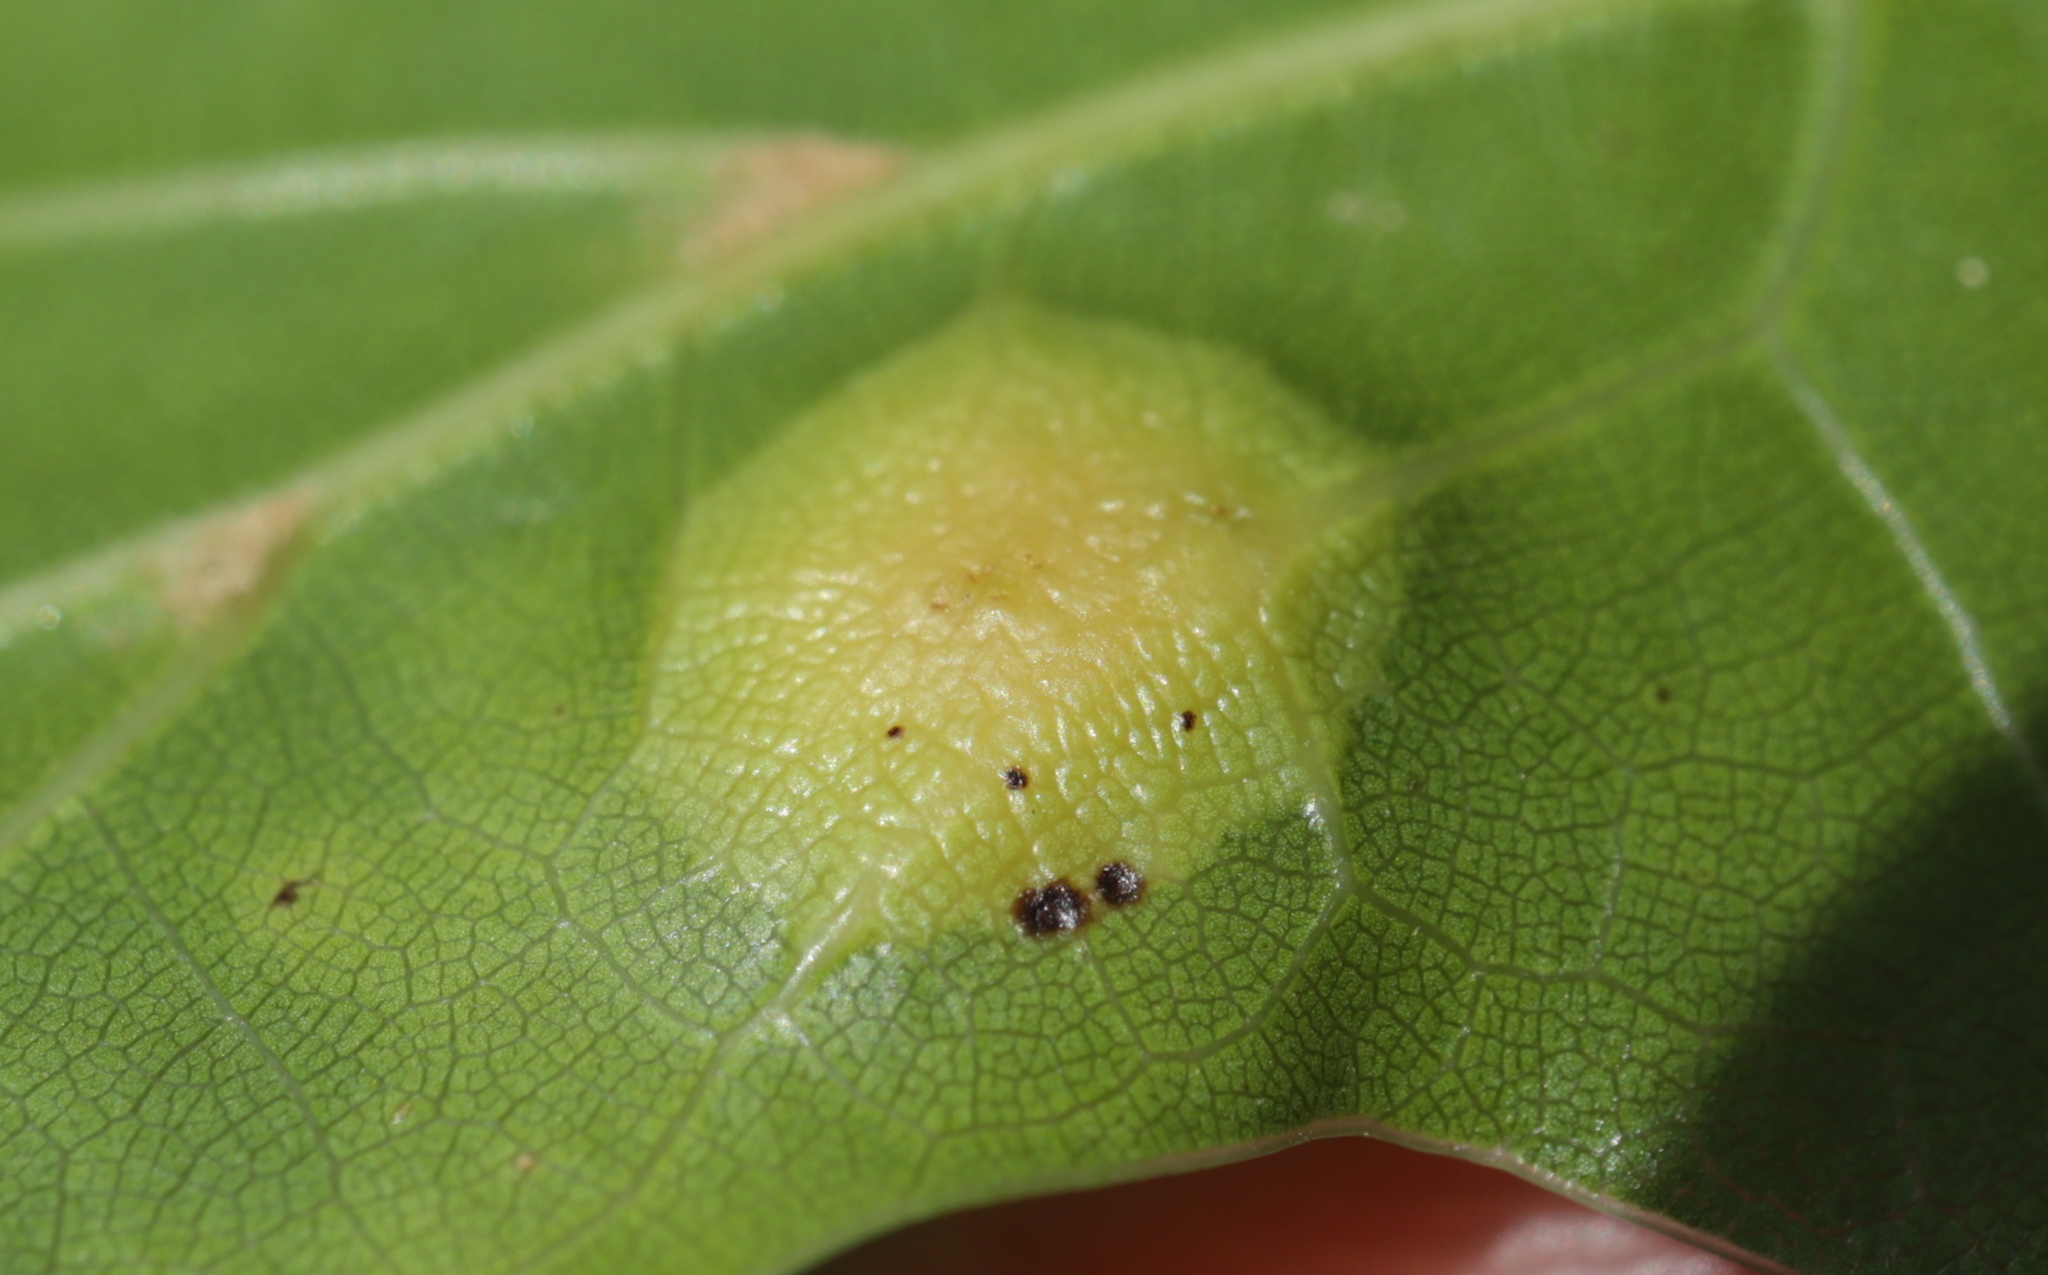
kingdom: Animalia
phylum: Arthropoda
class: Insecta
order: Diptera
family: Cecidomyiidae
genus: Polystepha
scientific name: Polystepha pilulae
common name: Oak leaf gall midge
